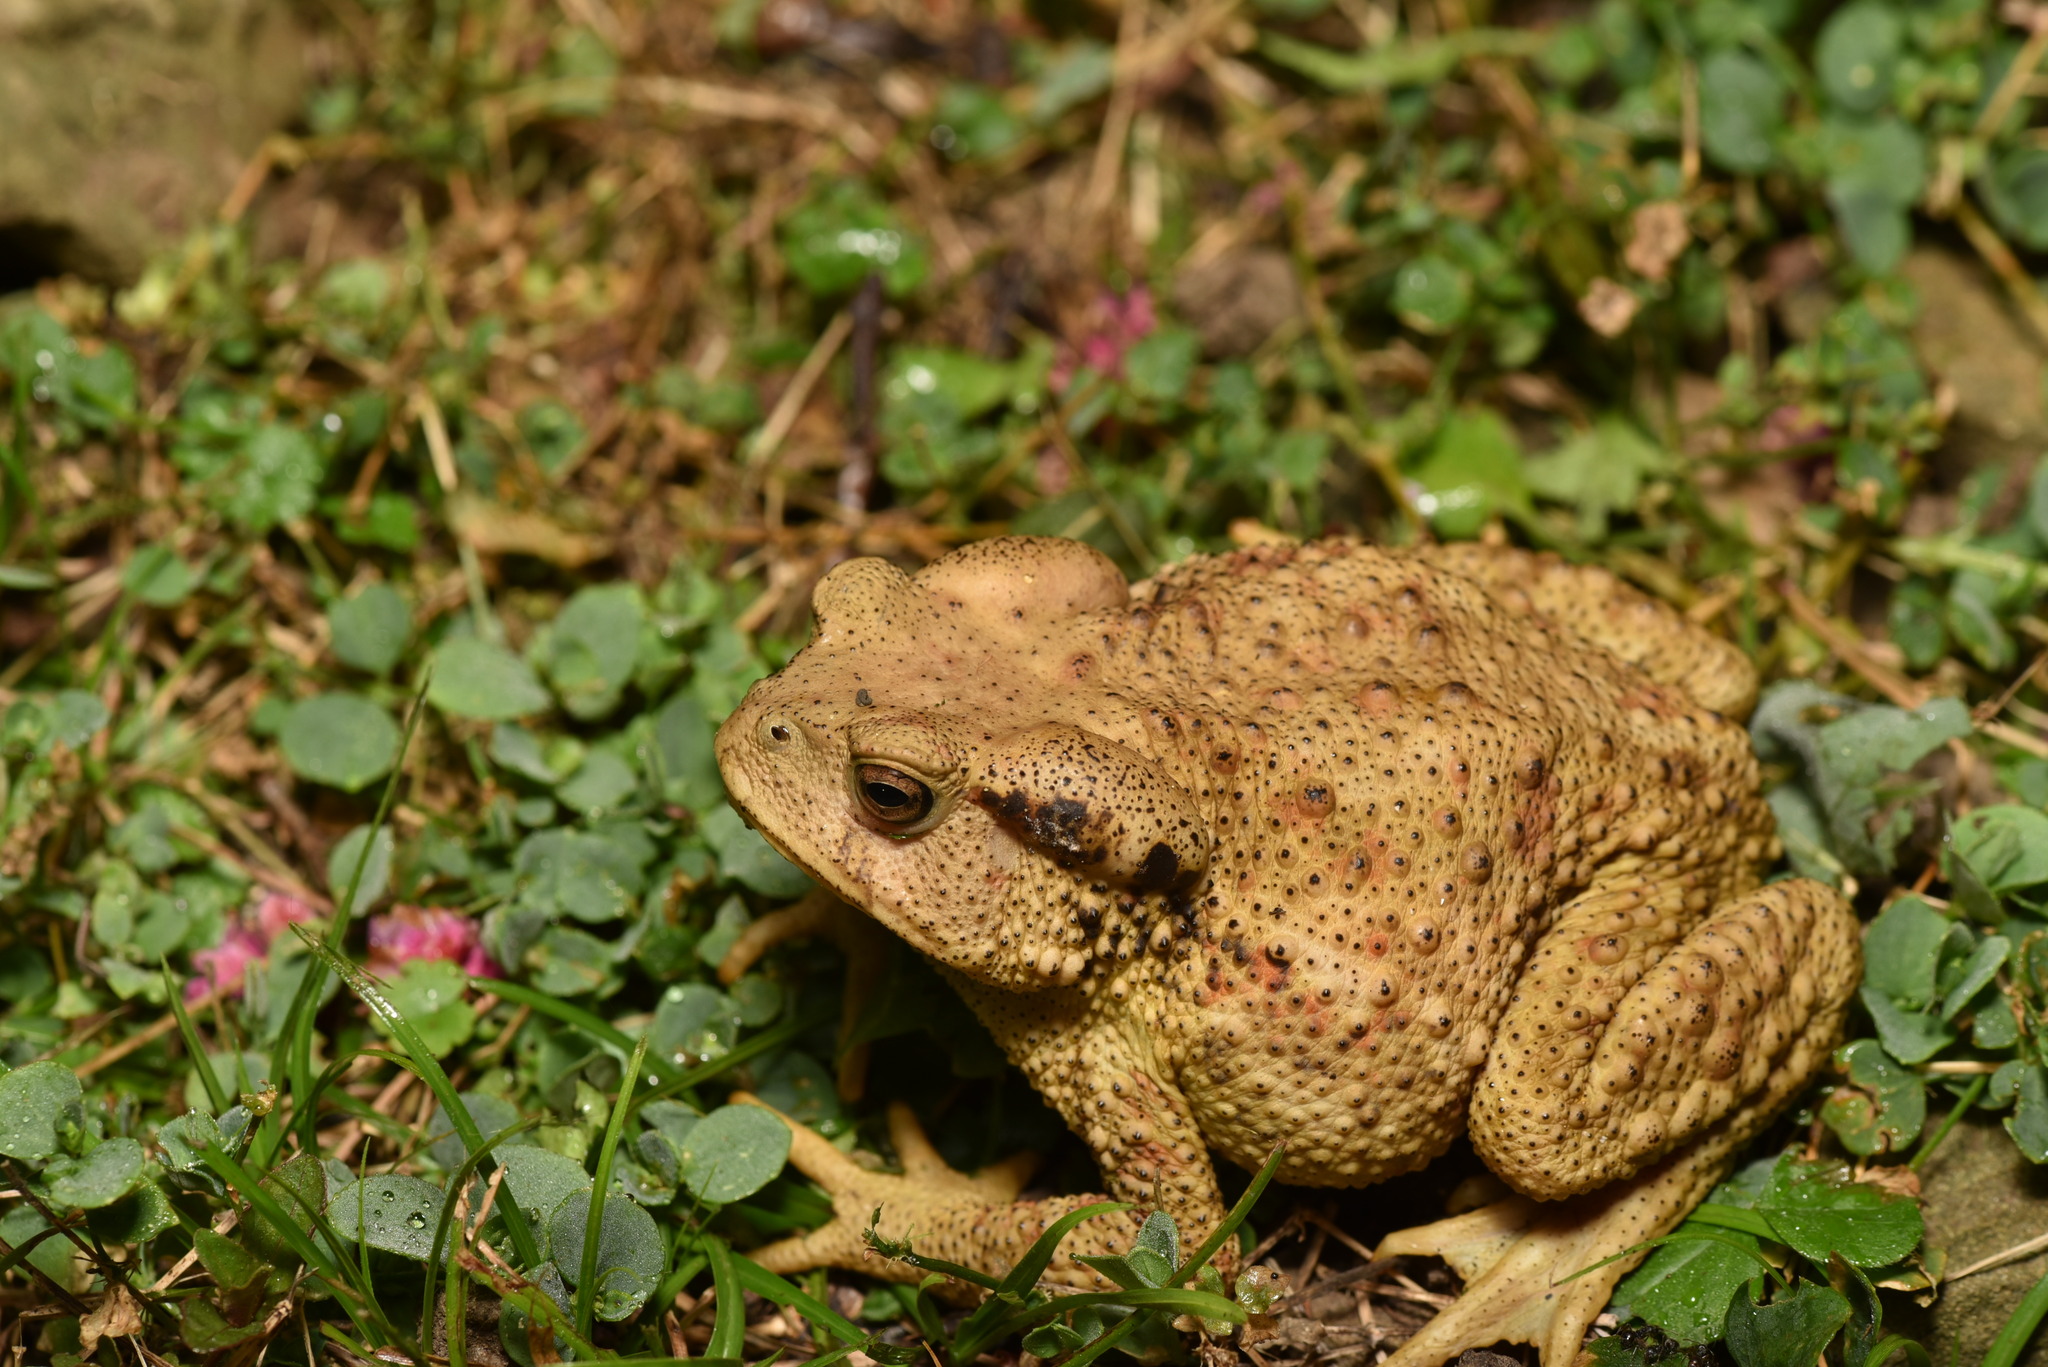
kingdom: Animalia
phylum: Chordata
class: Amphibia
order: Anura
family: Bufonidae
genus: Bufo
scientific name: Bufo bankorensis
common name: Bankor toad
